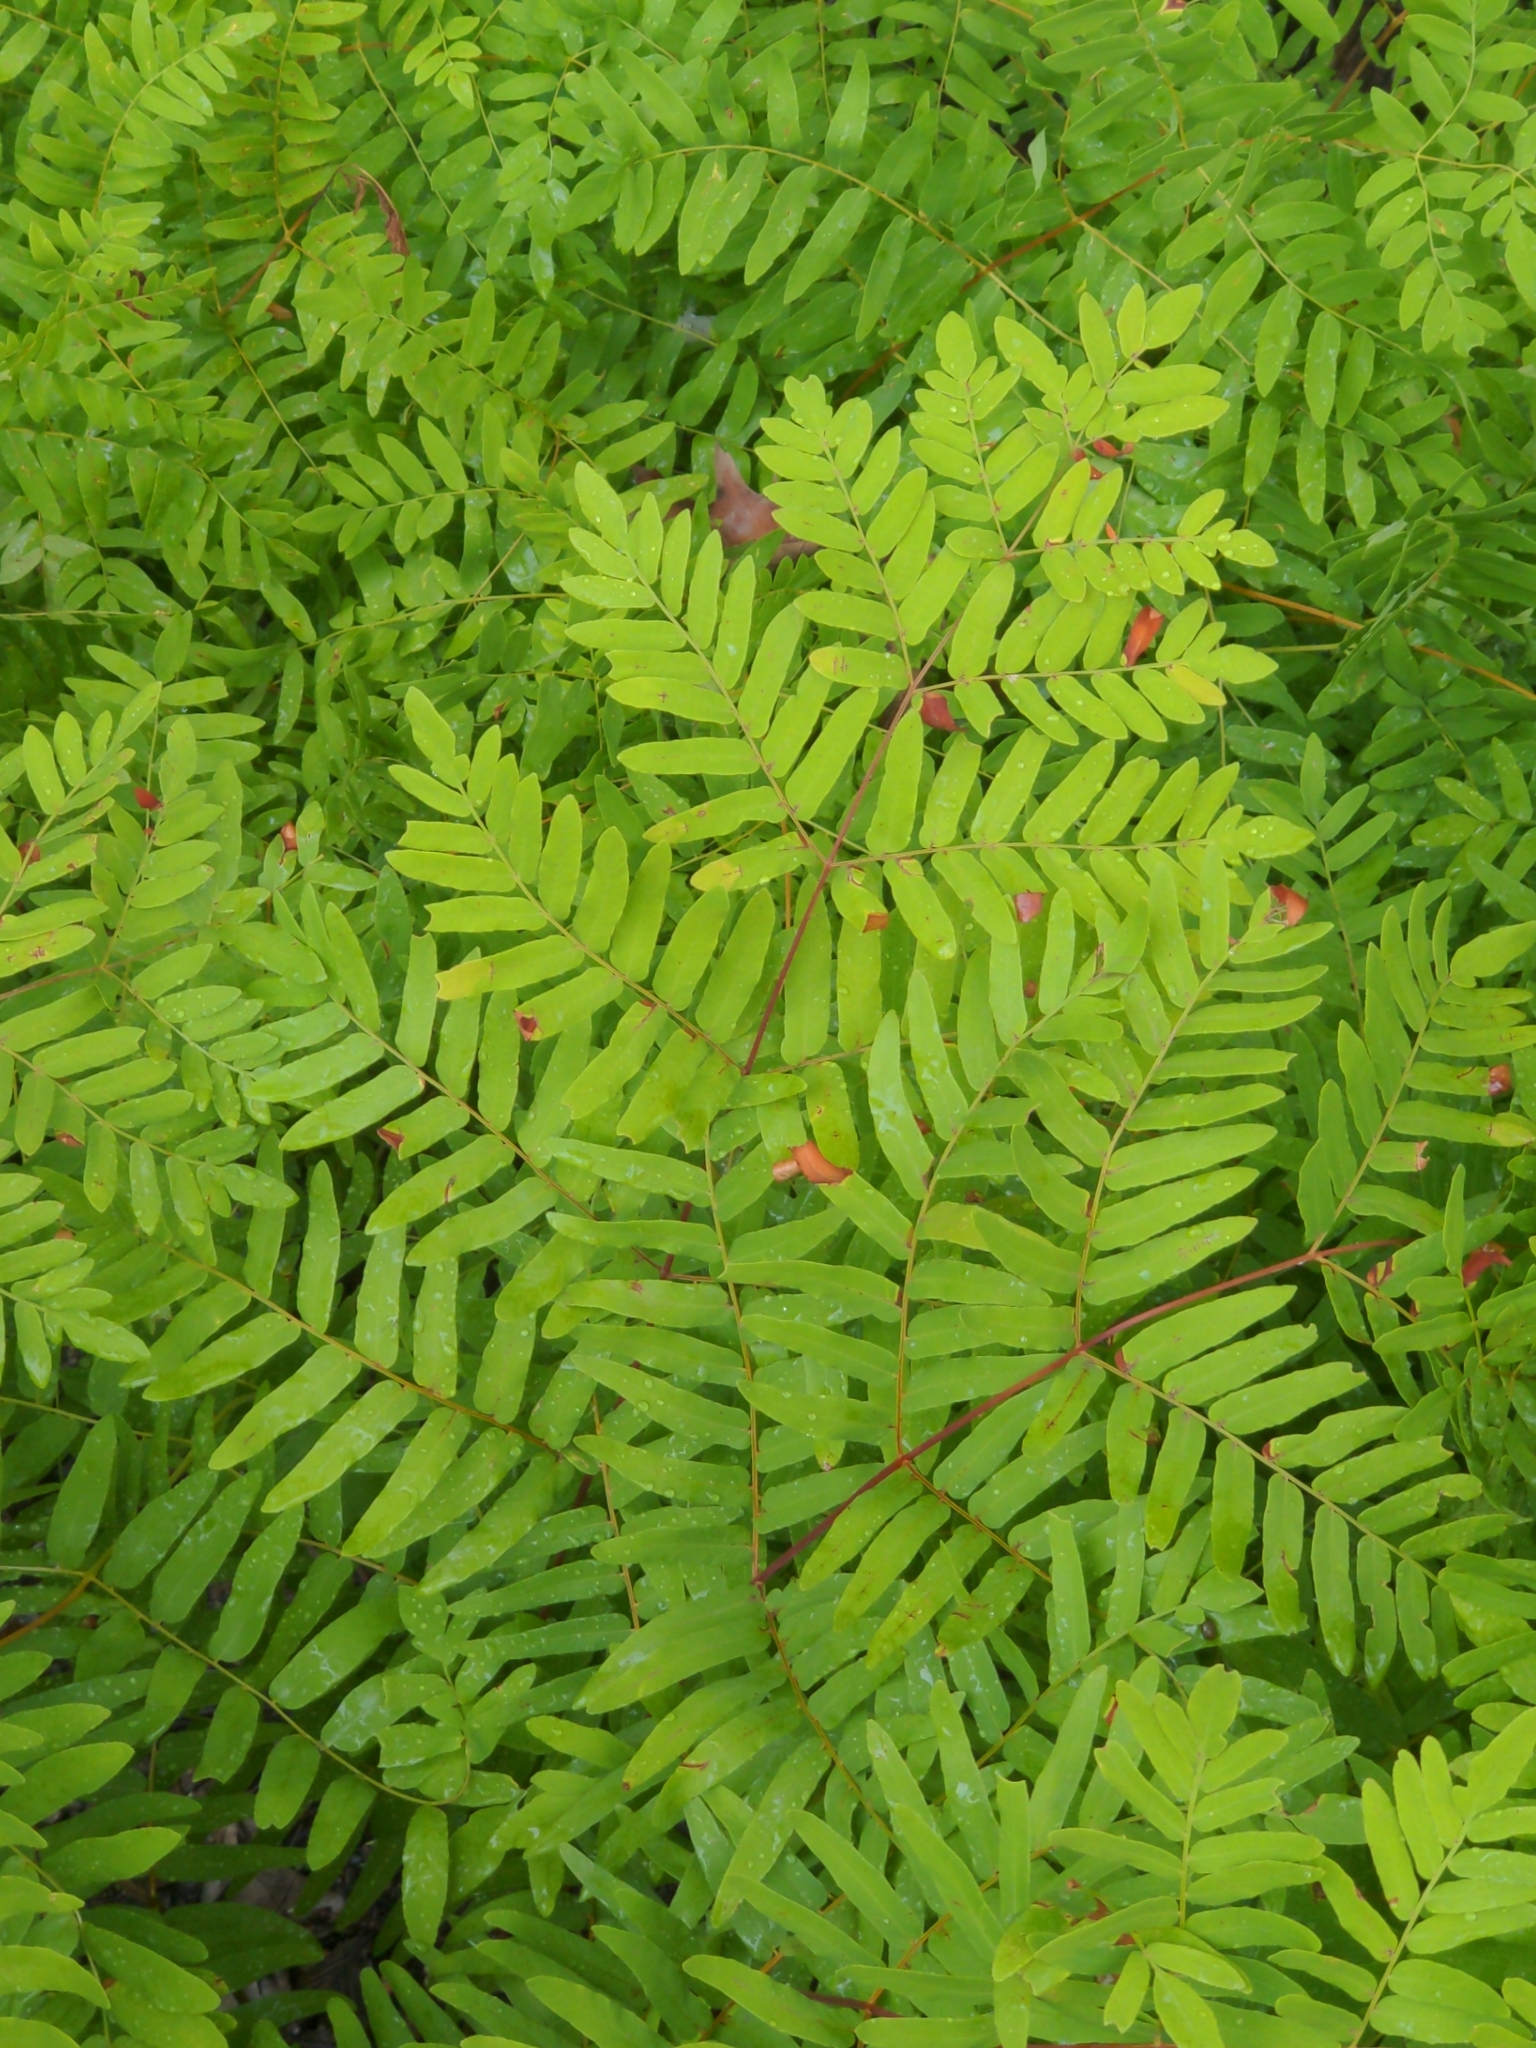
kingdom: Plantae
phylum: Tracheophyta
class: Polypodiopsida
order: Osmundales
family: Osmundaceae
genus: Osmunda
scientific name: Osmunda spectabilis
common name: American royal fern
